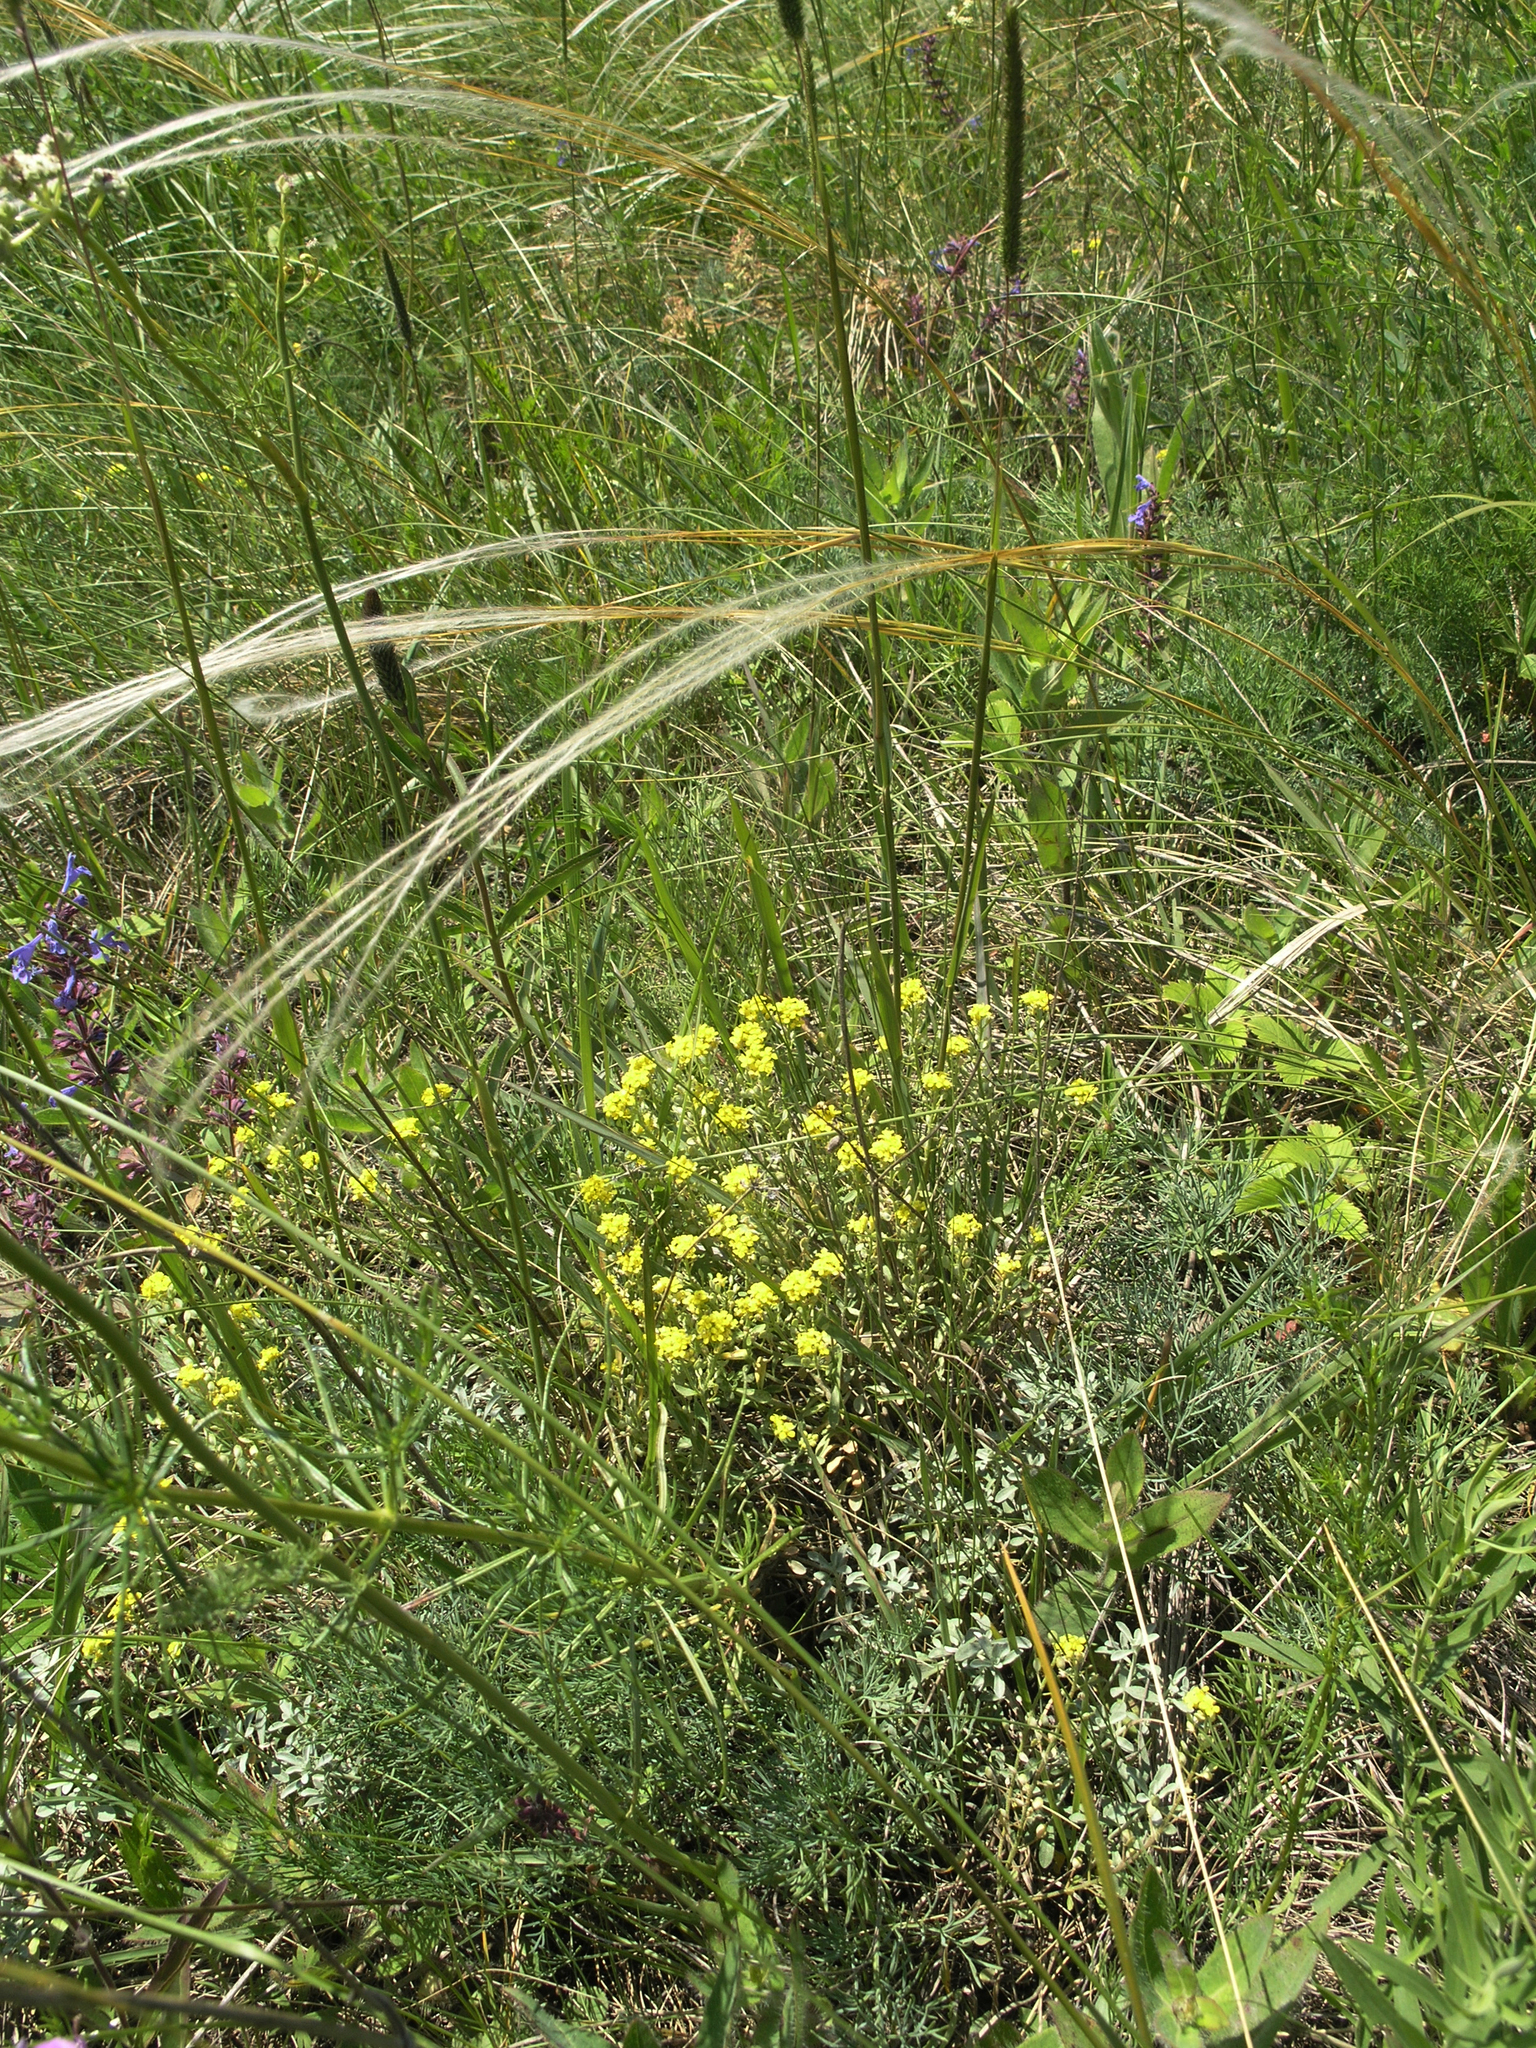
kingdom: Plantae
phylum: Tracheophyta
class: Magnoliopsida
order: Brassicales
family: Brassicaceae
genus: Odontarrhena
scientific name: Odontarrhena obovata
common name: American alyssum
